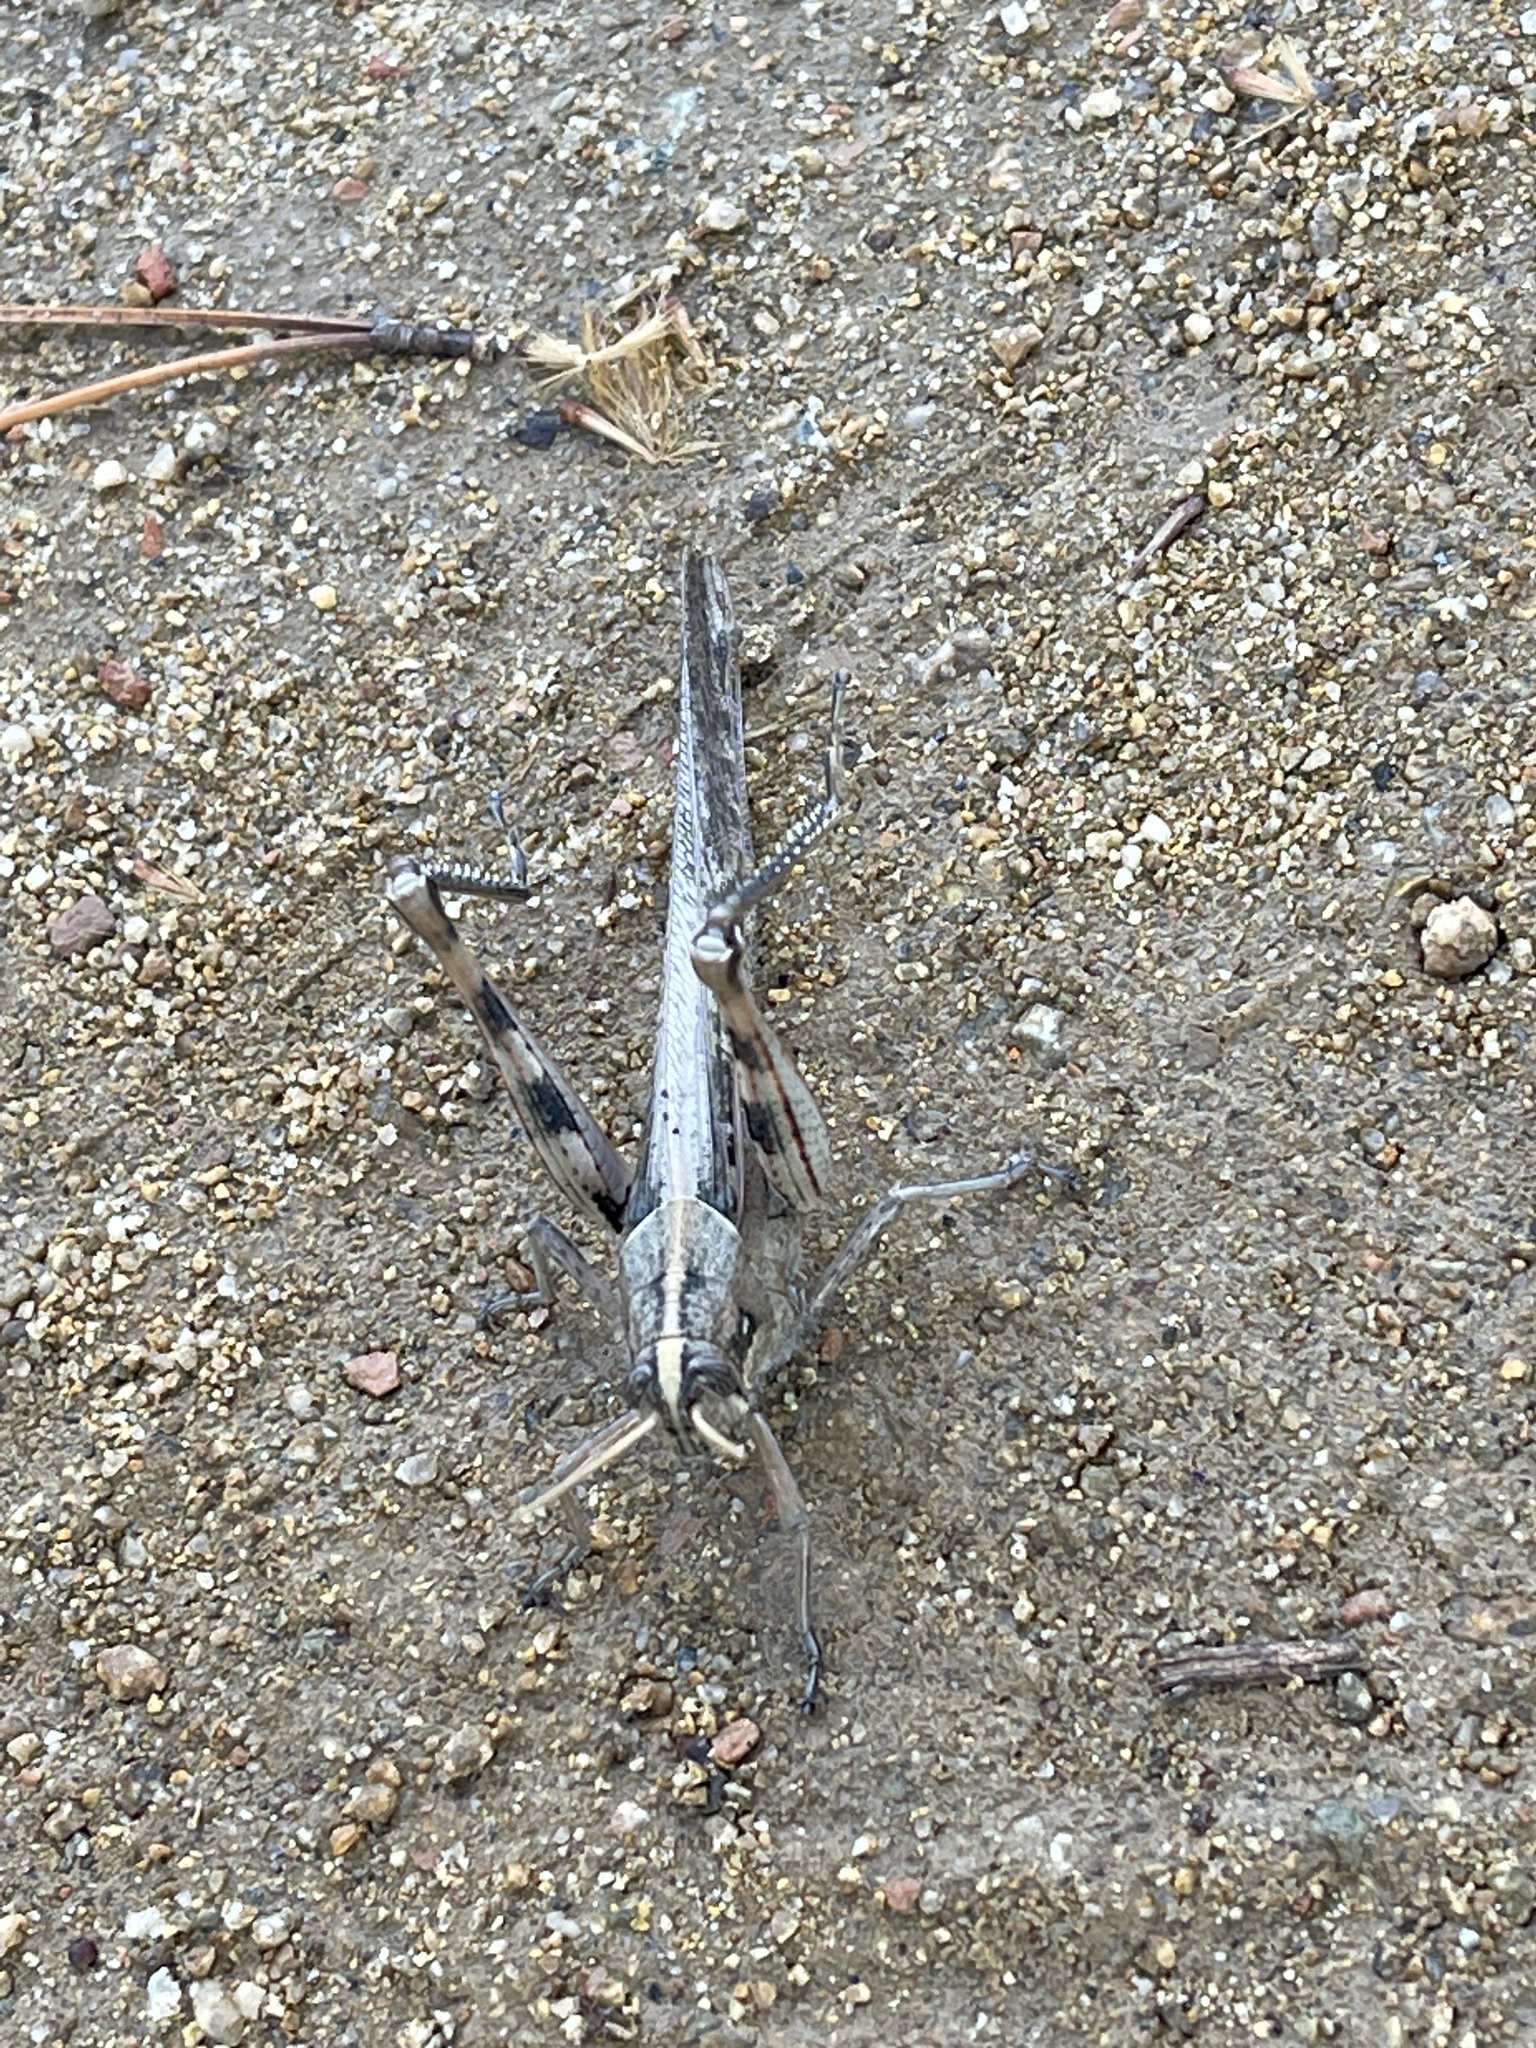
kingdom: Animalia
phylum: Arthropoda
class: Insecta
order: Orthoptera
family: Acrididae
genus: Schistocerca
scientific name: Schistocerca nitens
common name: Vagrant grasshopper
